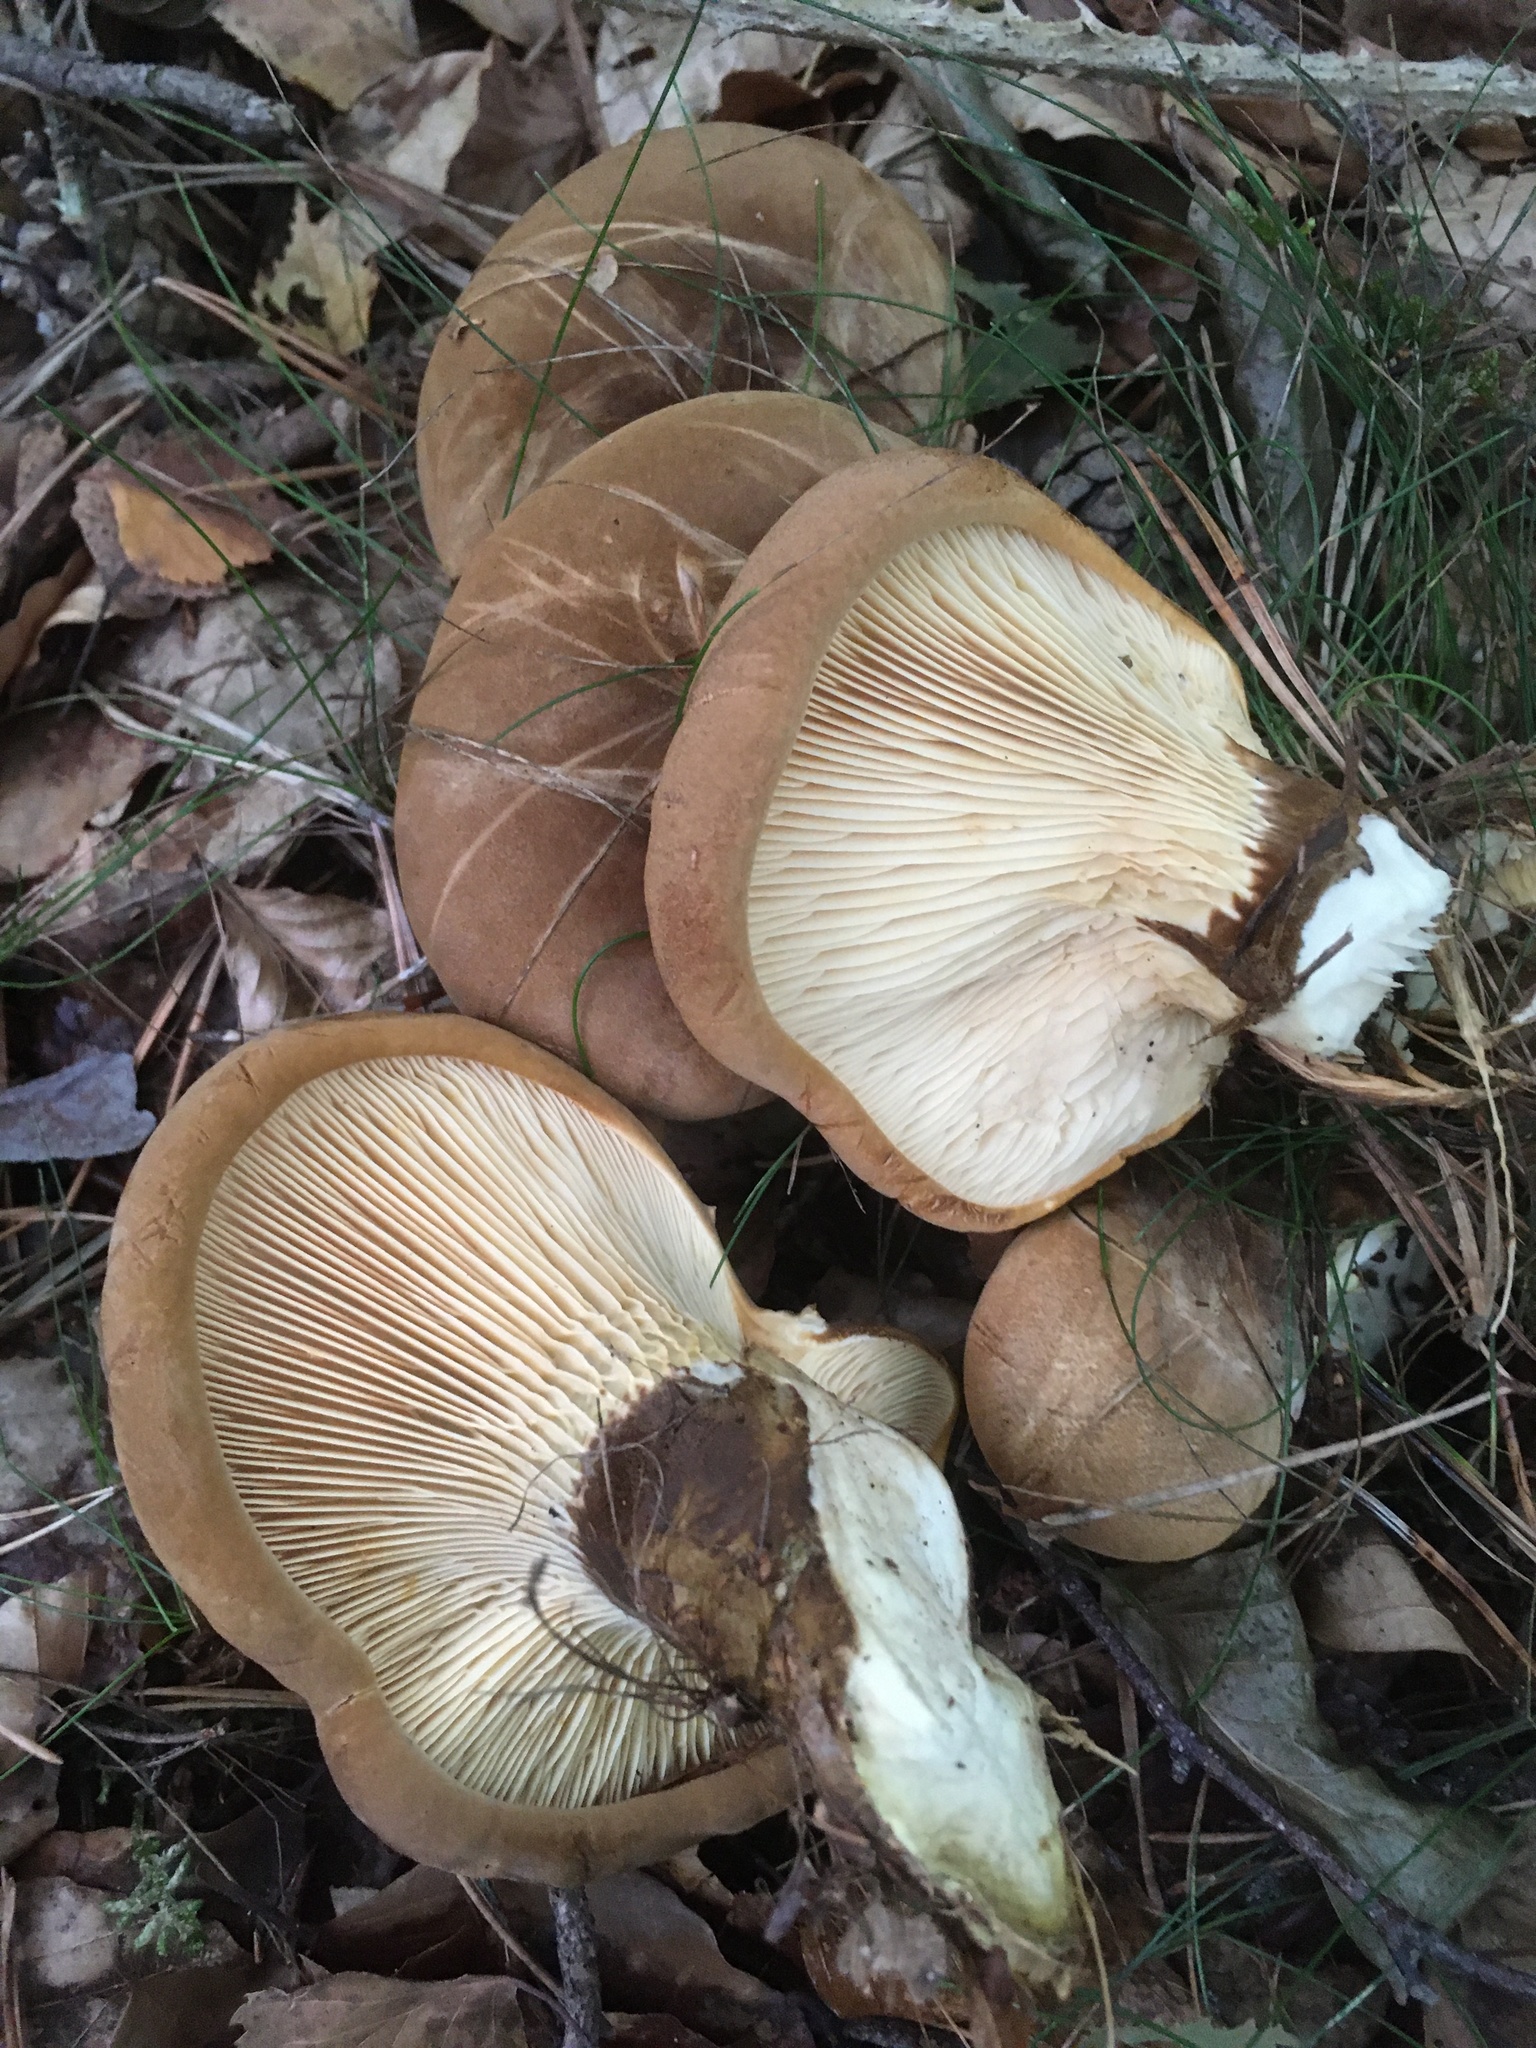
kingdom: Fungi
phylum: Basidiomycota
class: Agaricomycetes
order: Boletales
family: Tapinellaceae
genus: Tapinella
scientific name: Tapinella atrotomentosa
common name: Velvet rollrim
